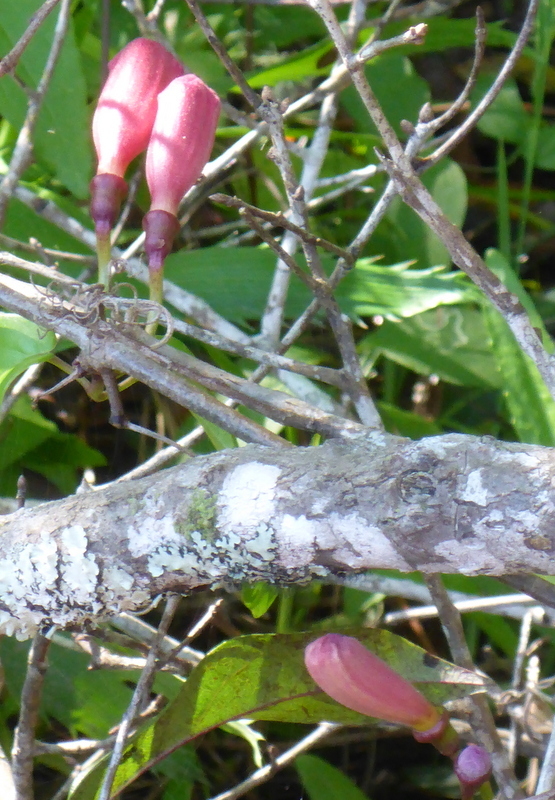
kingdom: Plantae
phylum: Tracheophyta
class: Magnoliopsida
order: Lamiales
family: Bignoniaceae
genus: Bignonia
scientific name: Bignonia capreolata
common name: Crossvine
